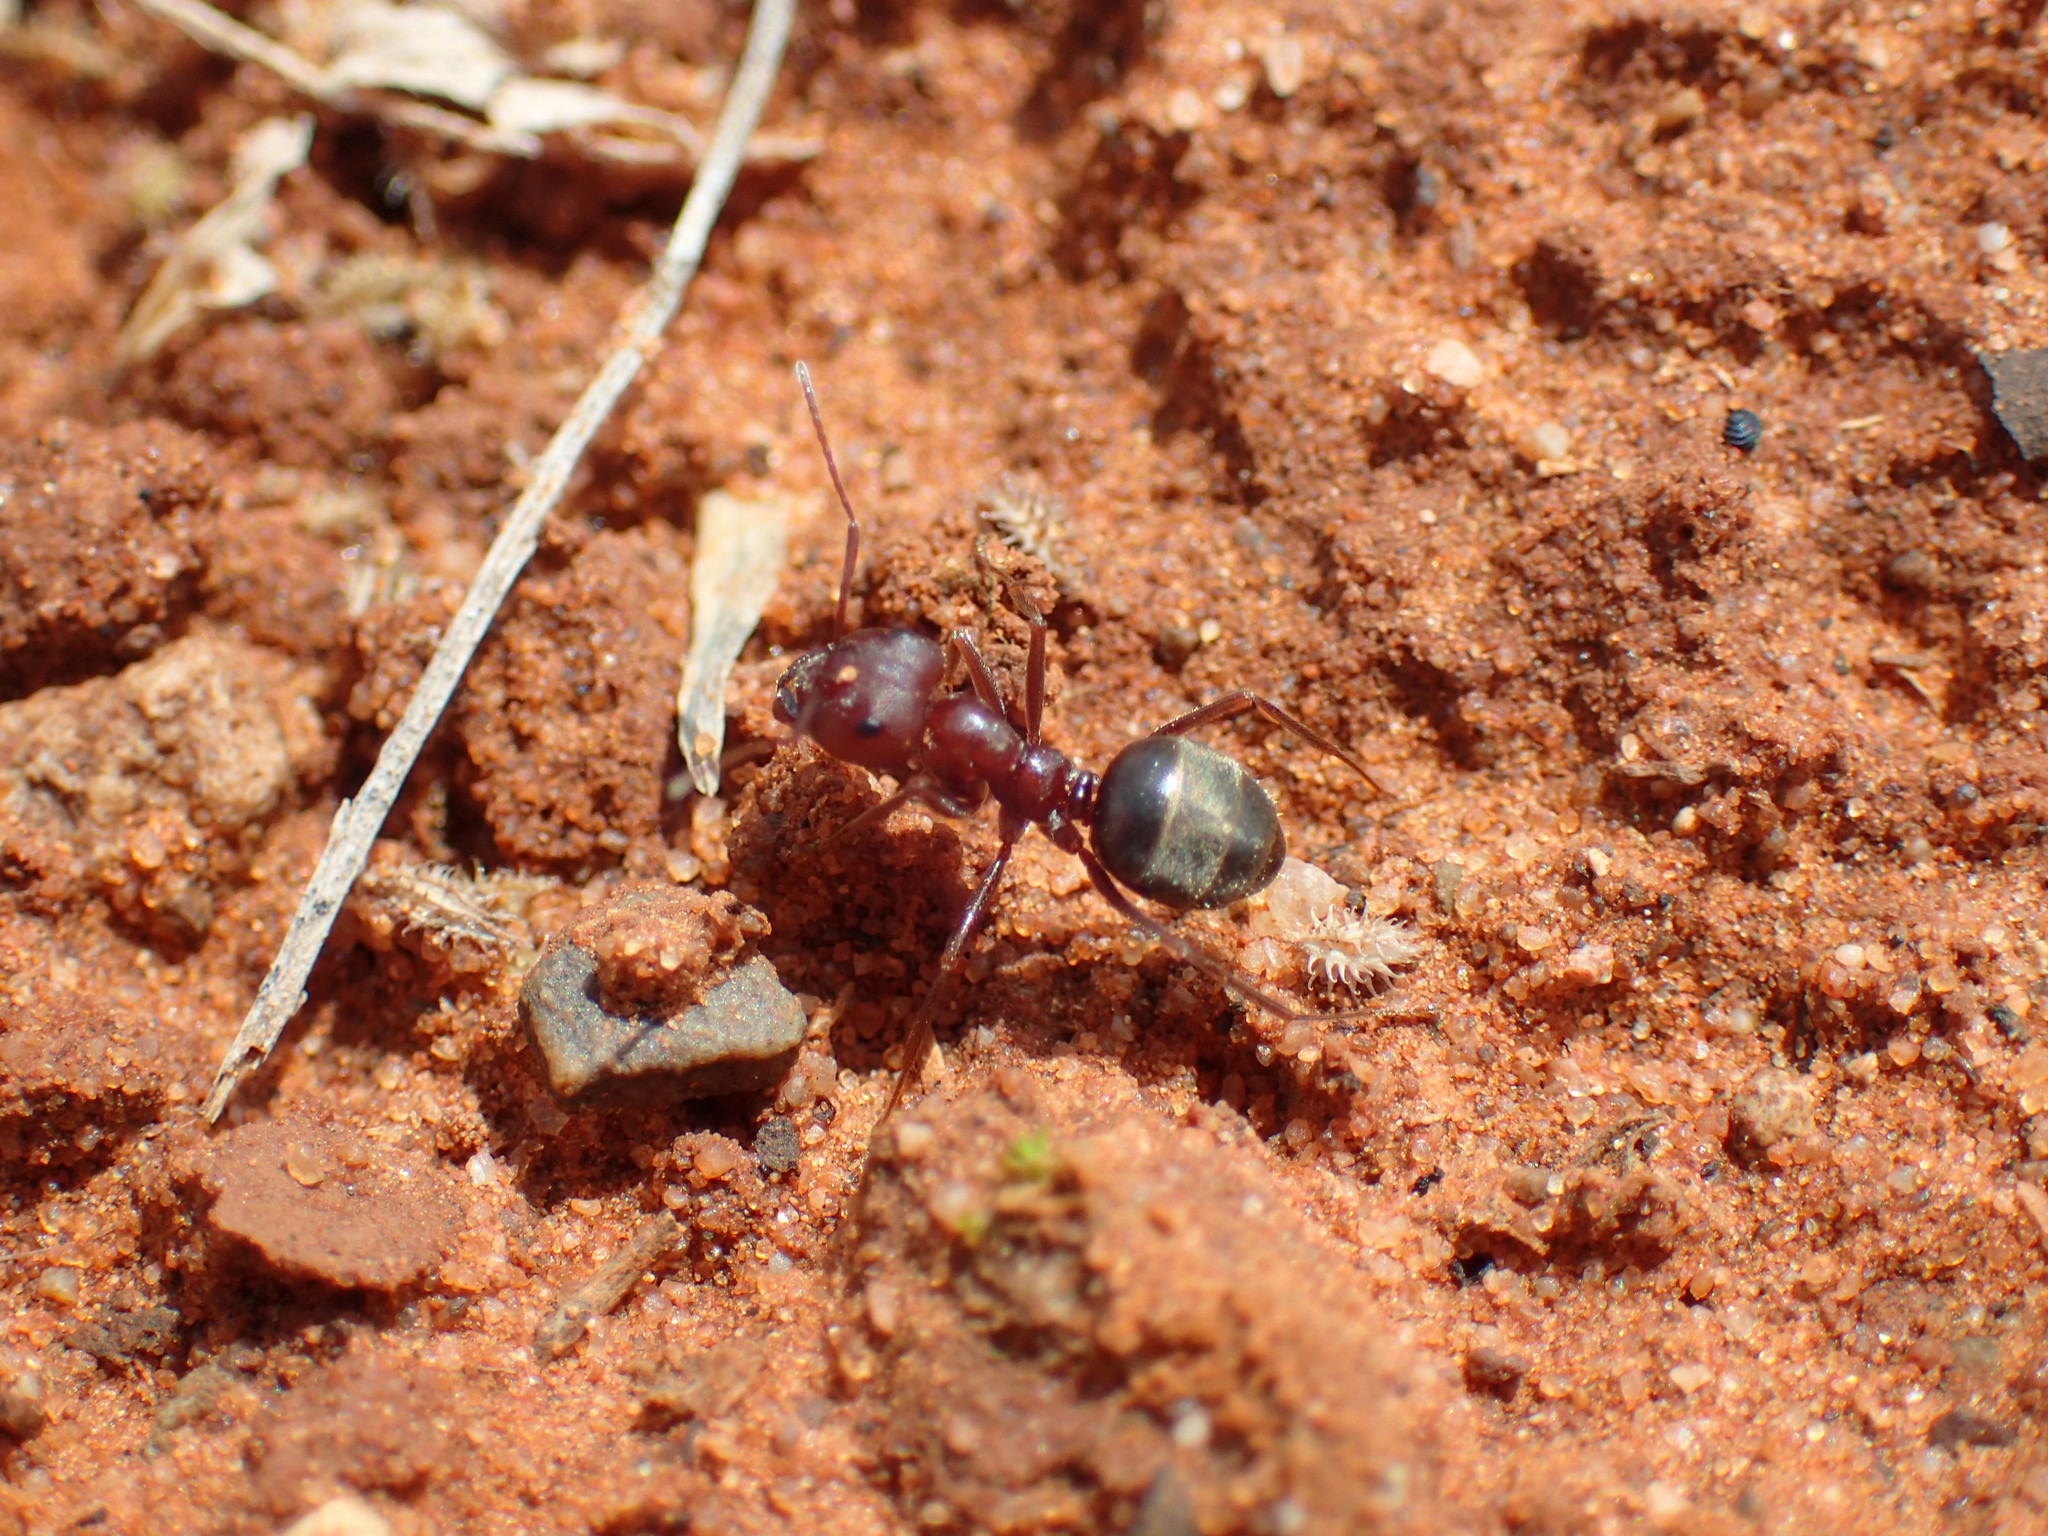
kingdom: Animalia
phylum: Arthropoda
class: Insecta
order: Hymenoptera
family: Formicidae
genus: Anoplolepis
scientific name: Anoplolepis custodiens
